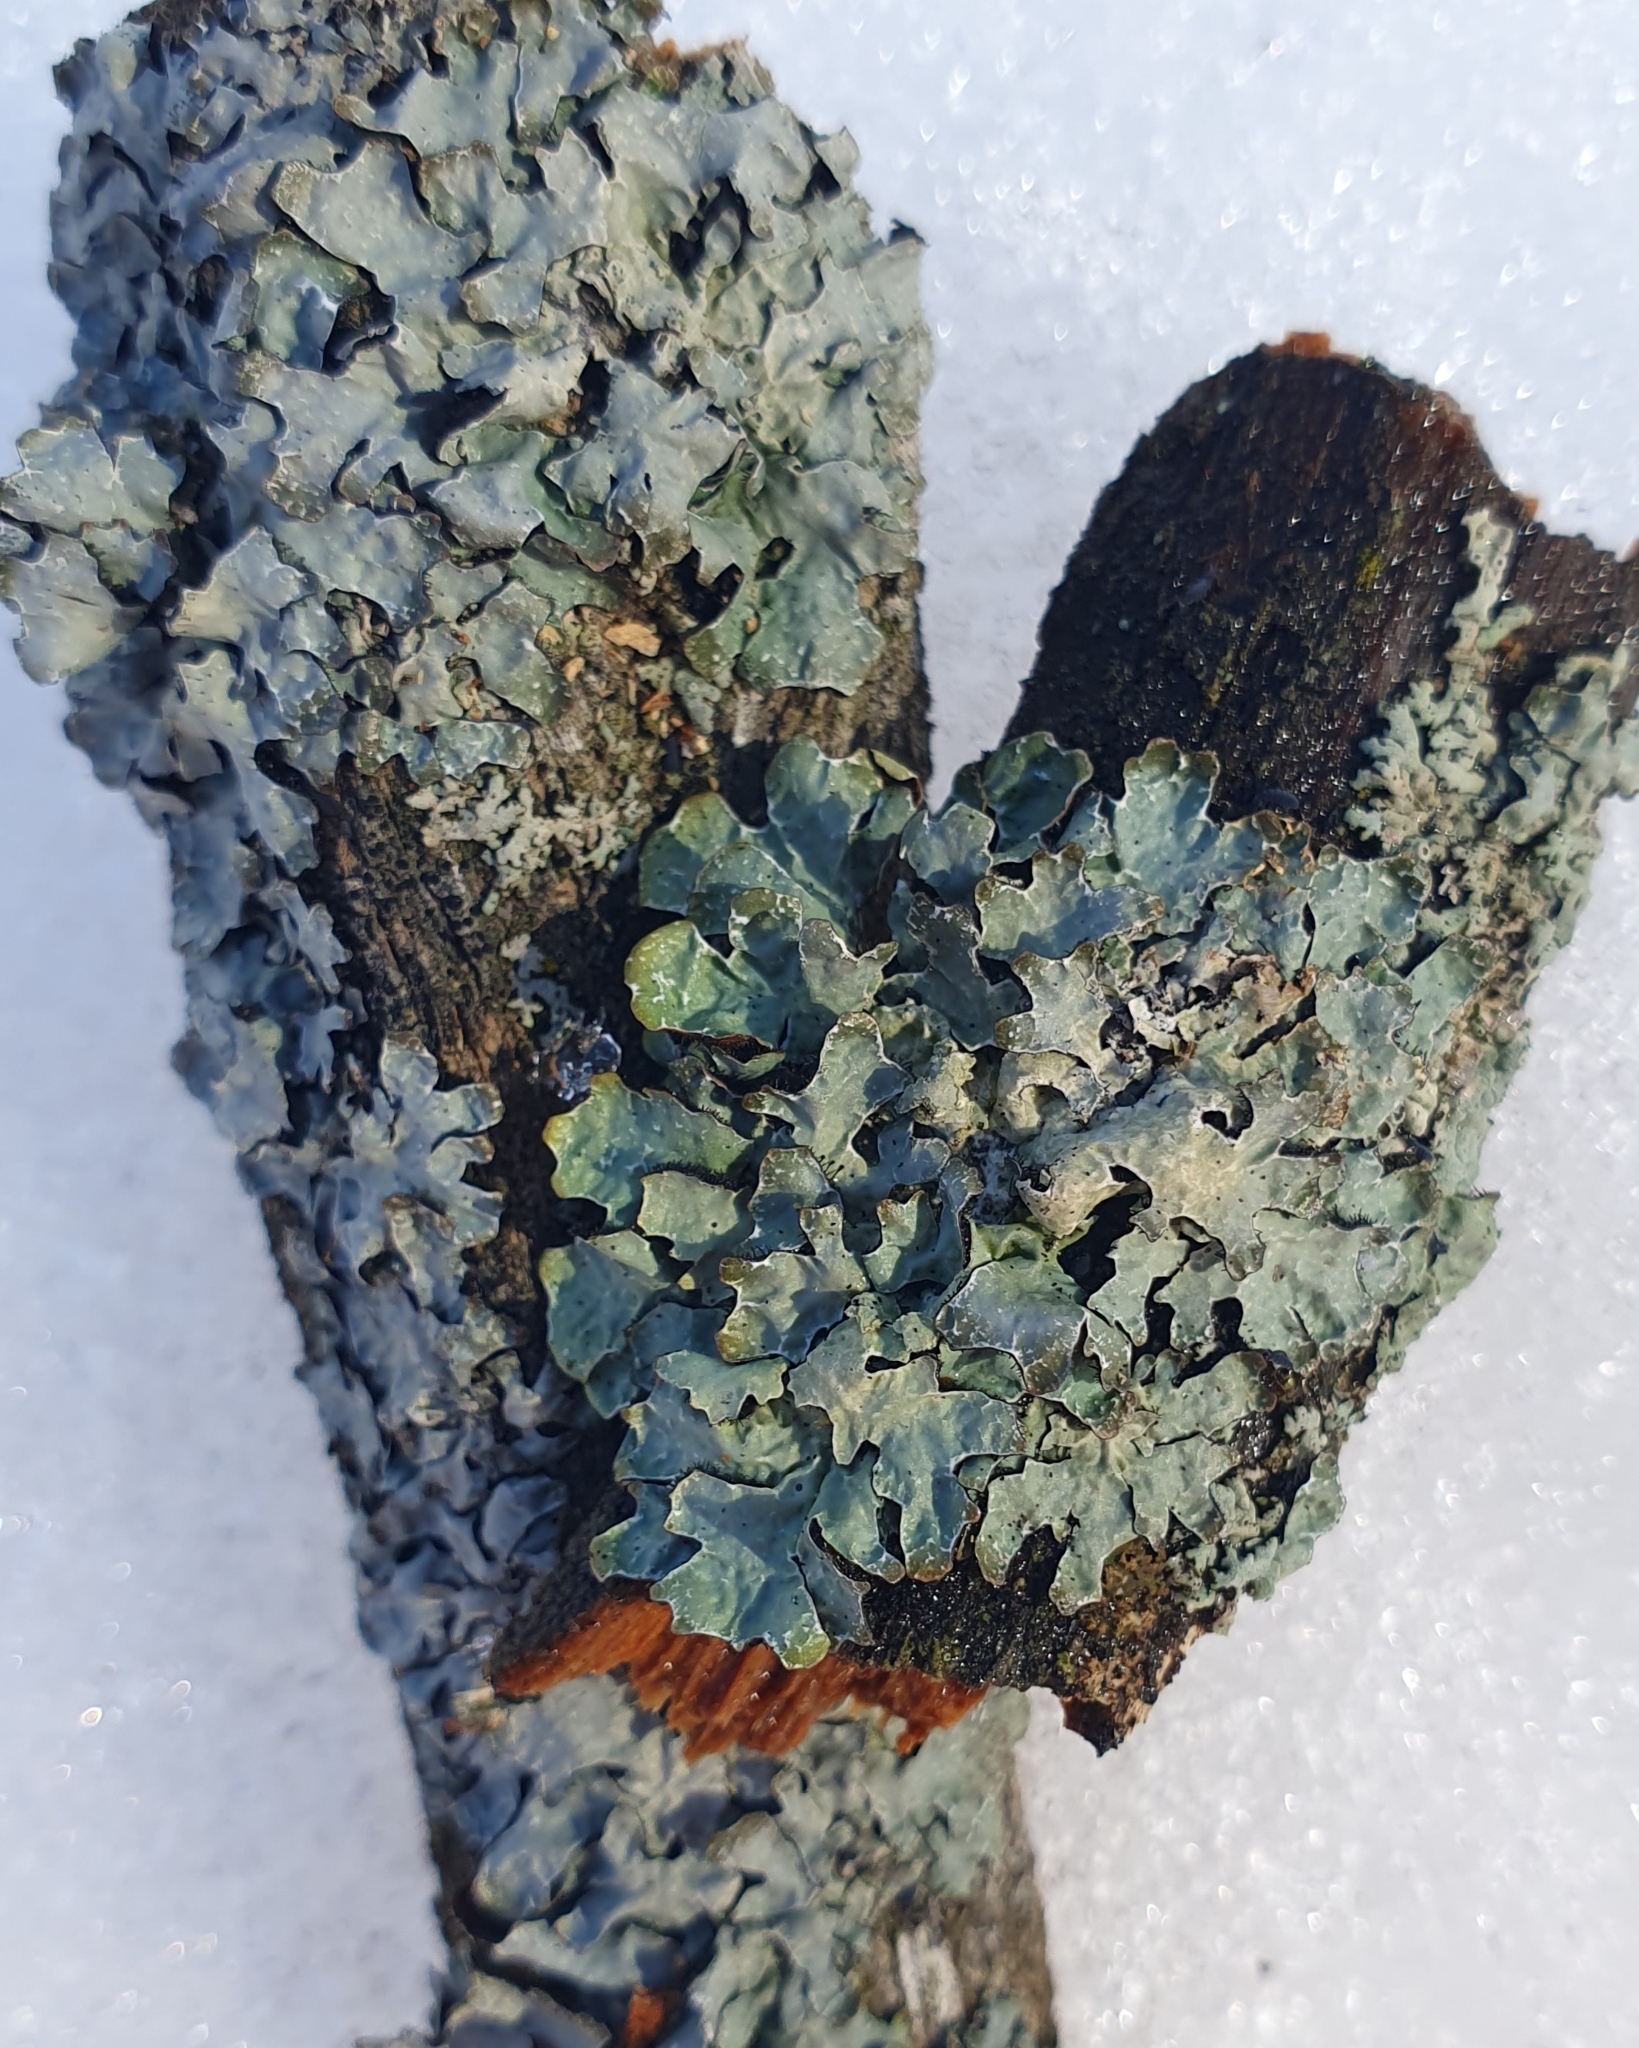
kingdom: Fungi
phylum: Ascomycota
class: Lecanoromycetes
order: Lecanorales
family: Parmeliaceae
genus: Parmelia
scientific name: Parmelia sulcata
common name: Netted shield lichen
